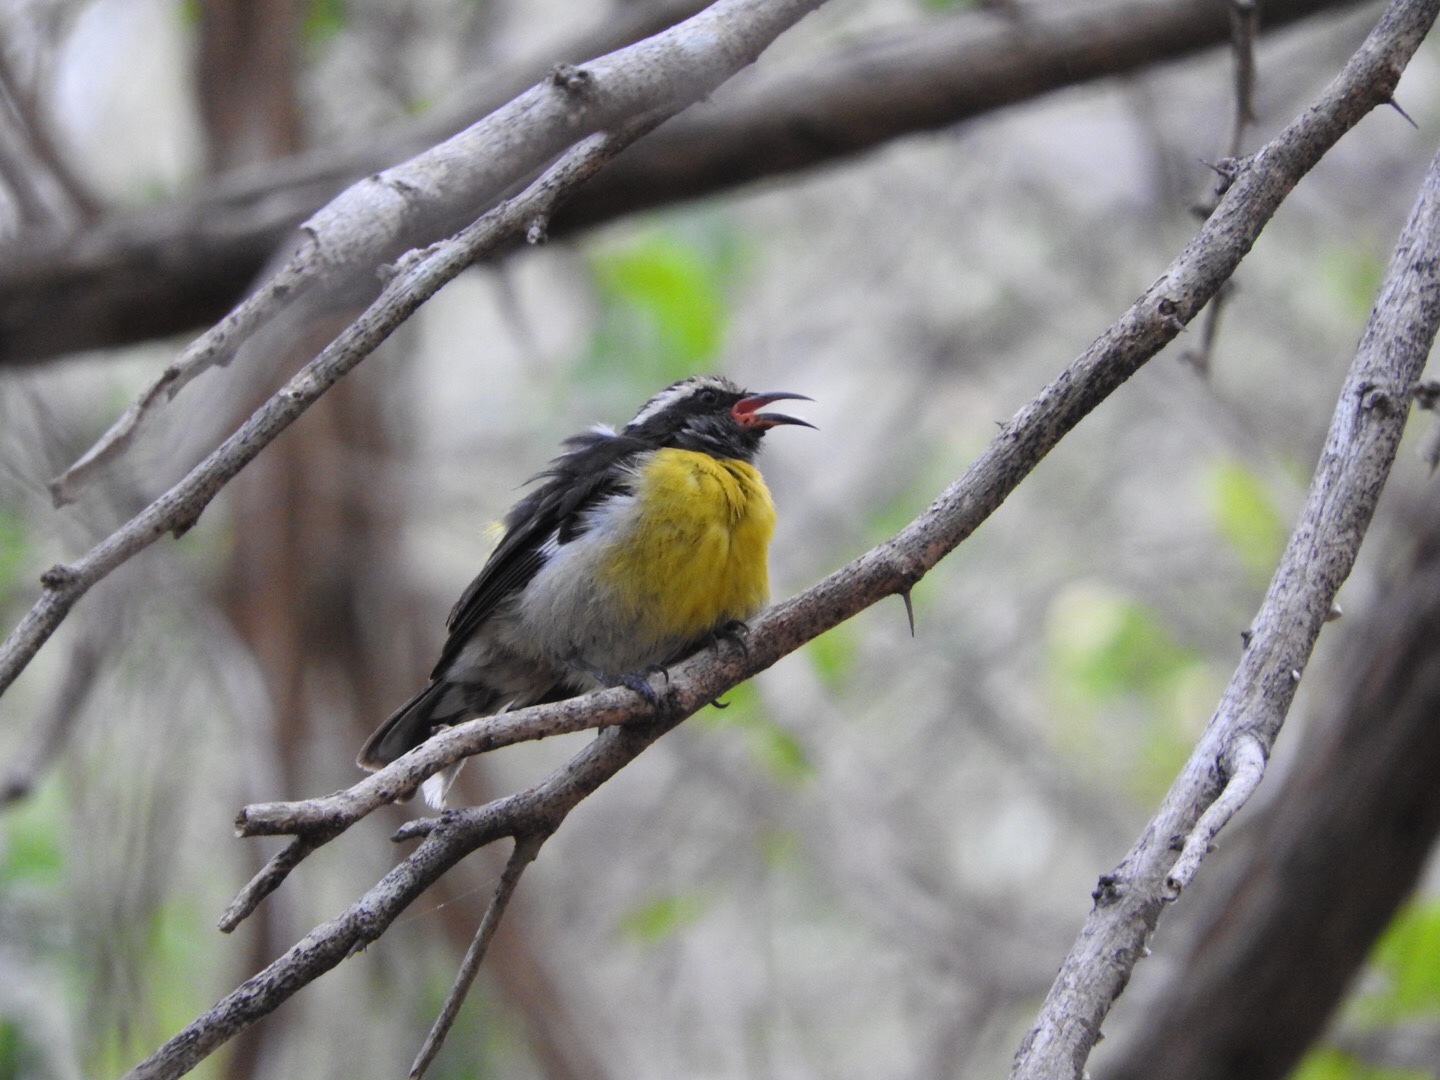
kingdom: Animalia
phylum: Chordata
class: Aves
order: Passeriformes
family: Thraupidae
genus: Coereba
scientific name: Coereba flaveola
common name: Bananaquit
